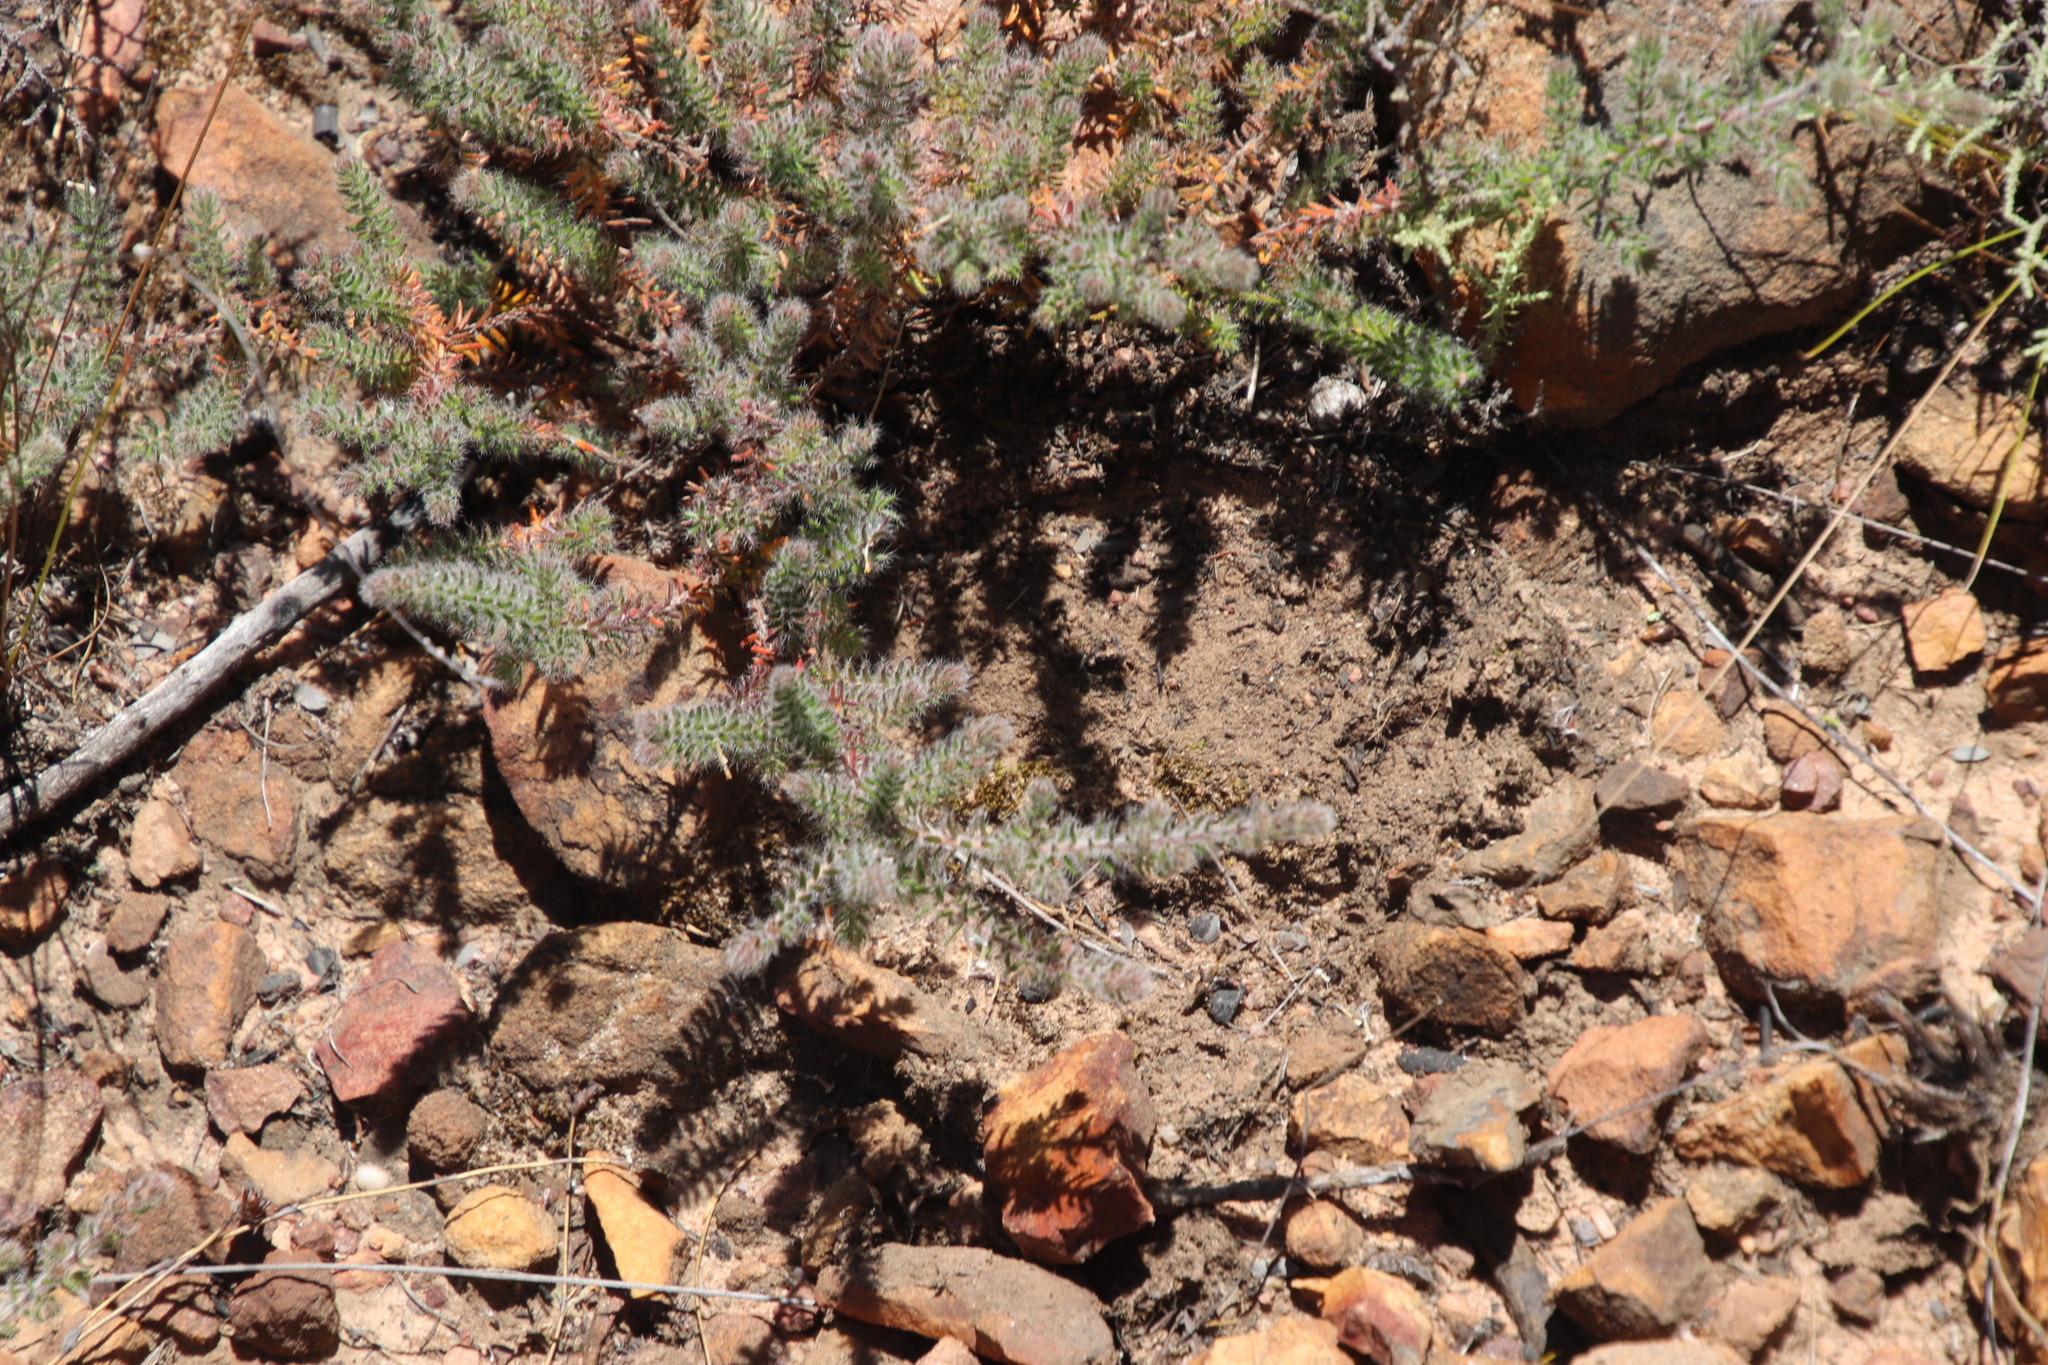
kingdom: Plantae
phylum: Tracheophyta
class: Magnoliopsida
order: Ericales
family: Ericaceae
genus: Erica
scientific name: Erica totta
